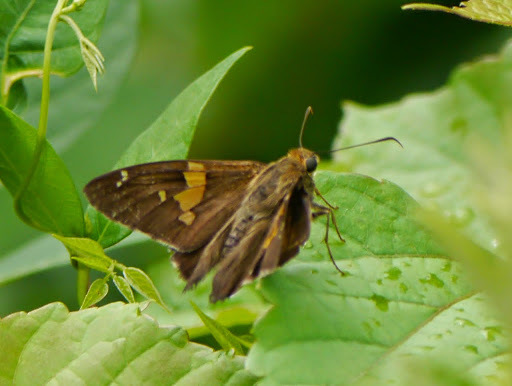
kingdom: Animalia
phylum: Arthropoda
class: Insecta
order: Lepidoptera
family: Hesperiidae
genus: Epargyreus
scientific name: Epargyreus clarus
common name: Silver-spotted skipper
